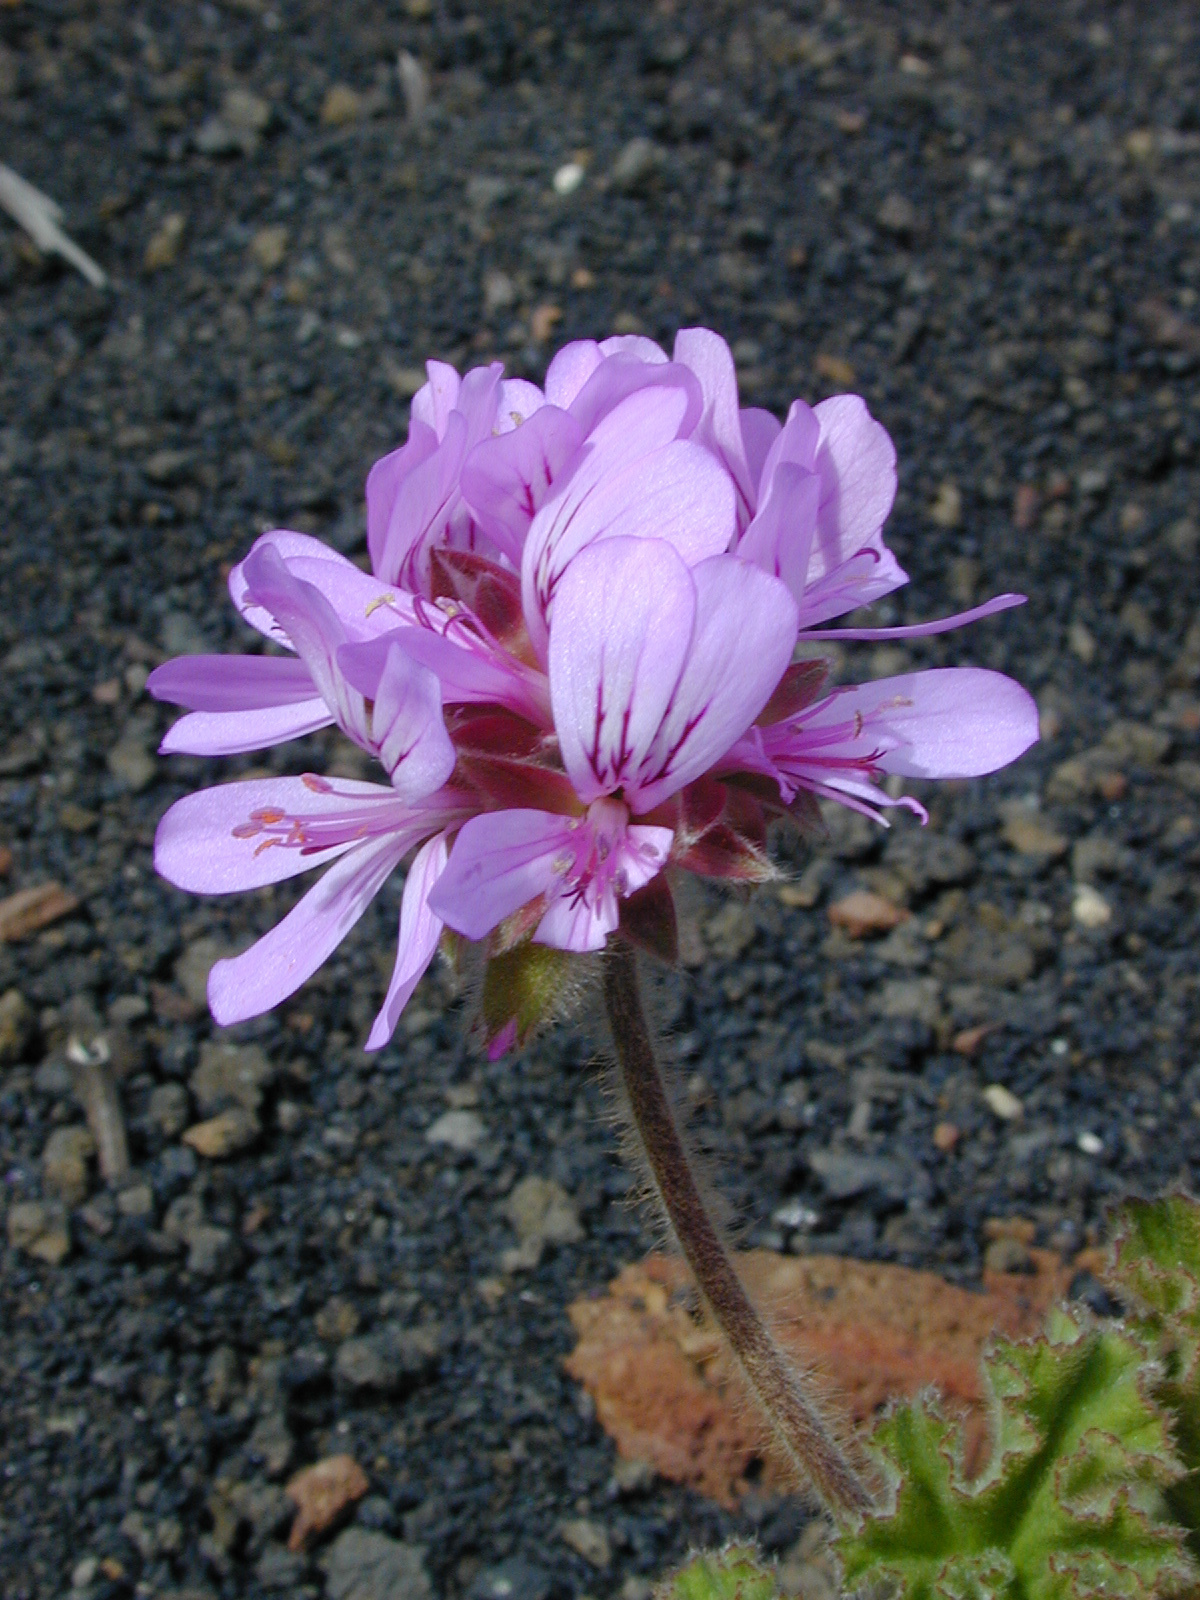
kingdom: Plantae
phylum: Tracheophyta
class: Magnoliopsida
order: Geraniales
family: Geraniaceae
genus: Pelargonium
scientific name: Pelargonium capitatum
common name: Rose scented geranium
